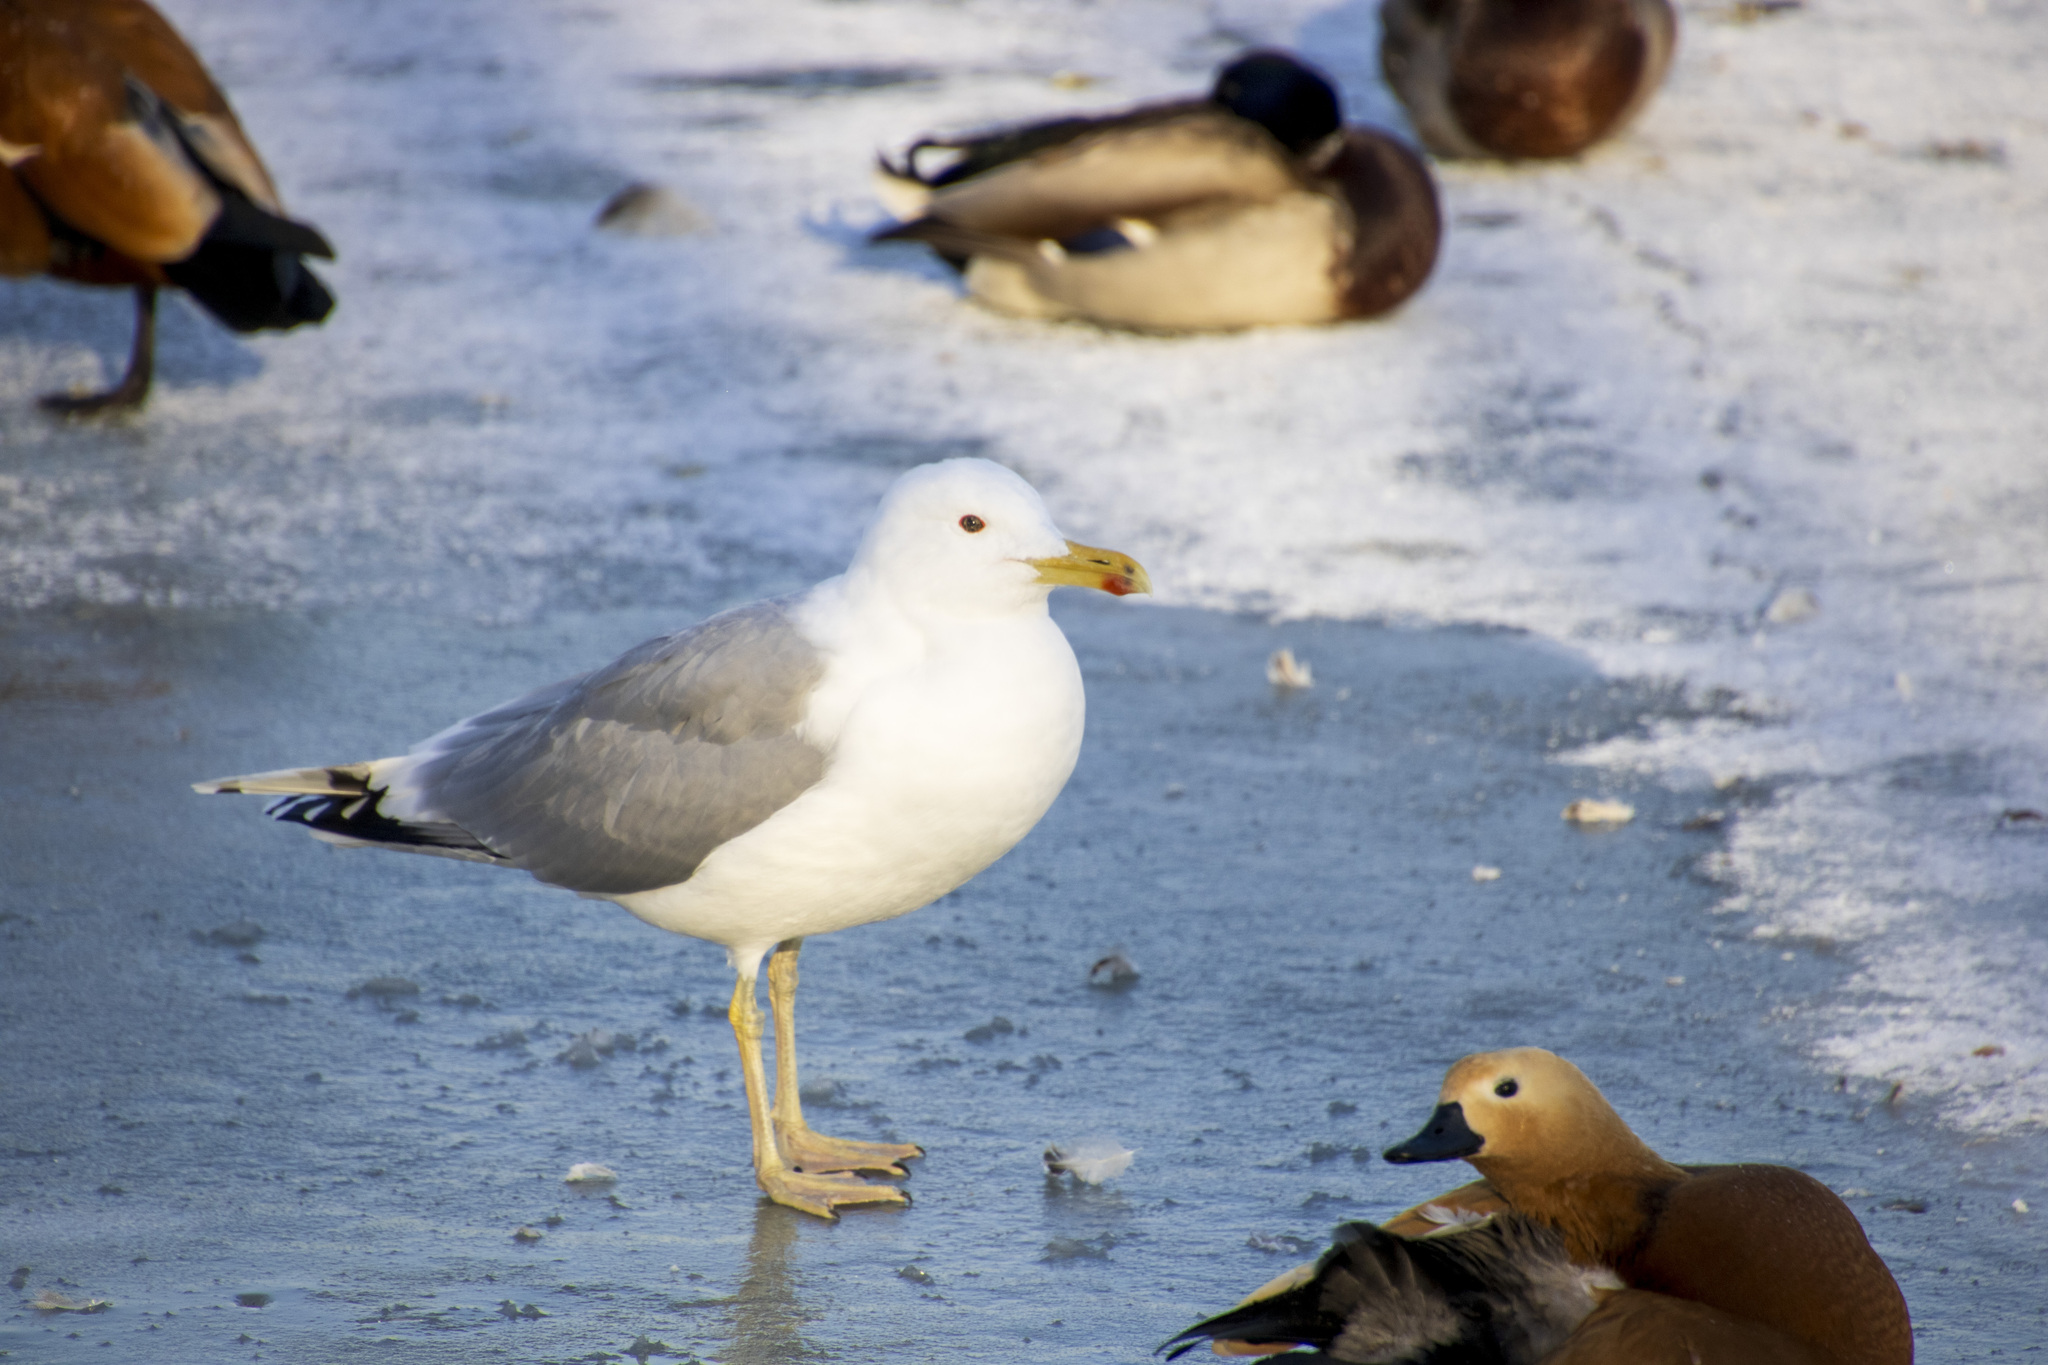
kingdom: Animalia
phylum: Chordata
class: Aves
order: Charadriiformes
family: Laridae
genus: Larus
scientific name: Larus cachinnans
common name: Caspian gull
